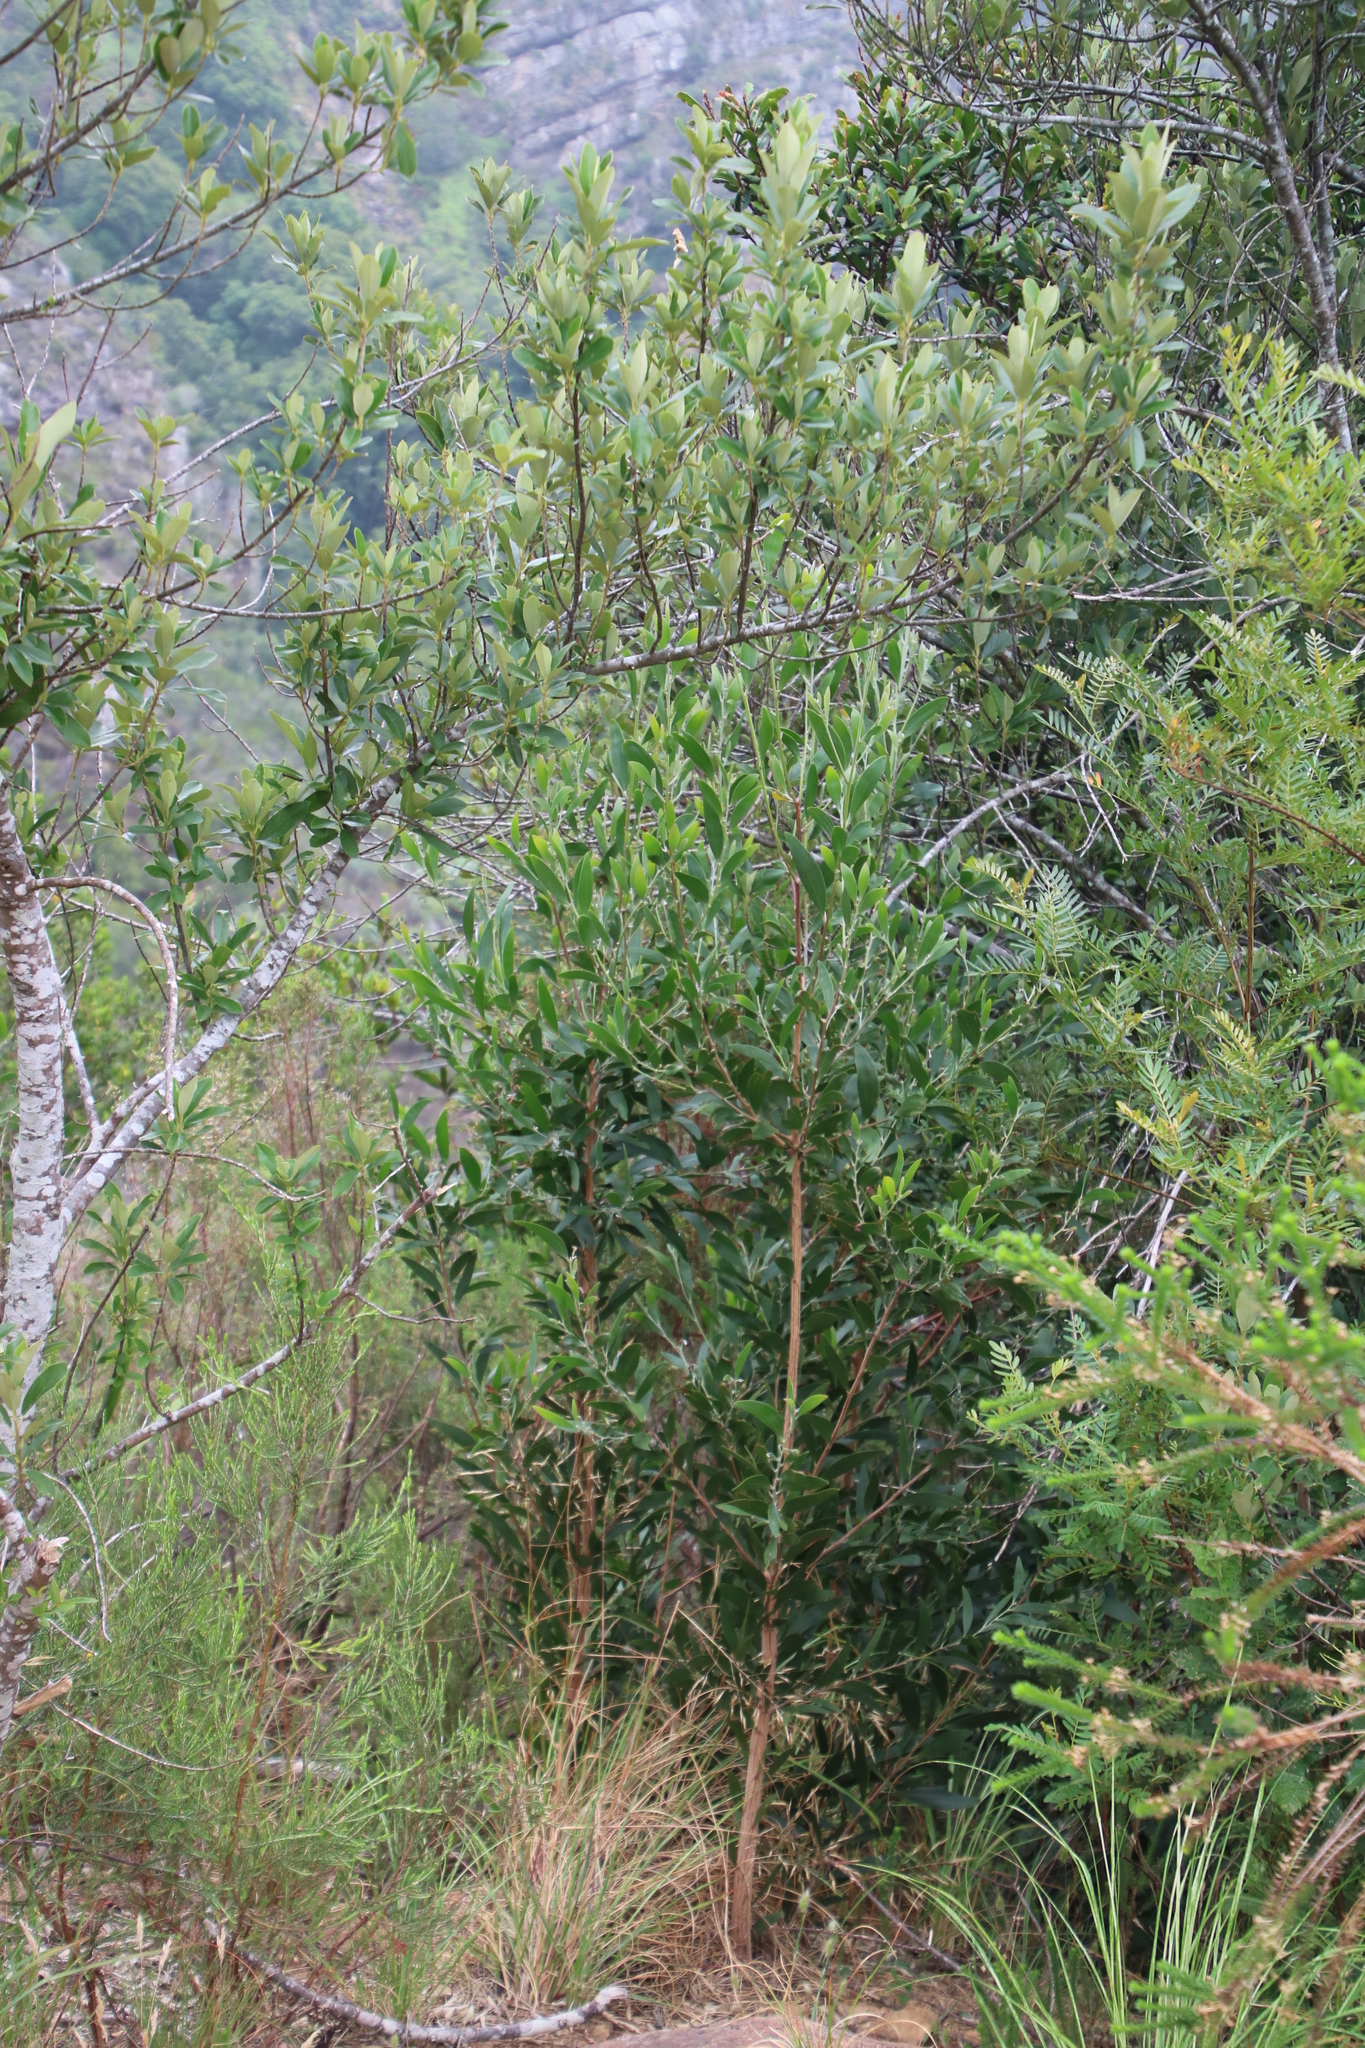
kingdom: Plantae
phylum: Tracheophyta
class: Magnoliopsida
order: Fabales
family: Fabaceae
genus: Acacia
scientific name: Acacia melanoxylon
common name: Blackwood
